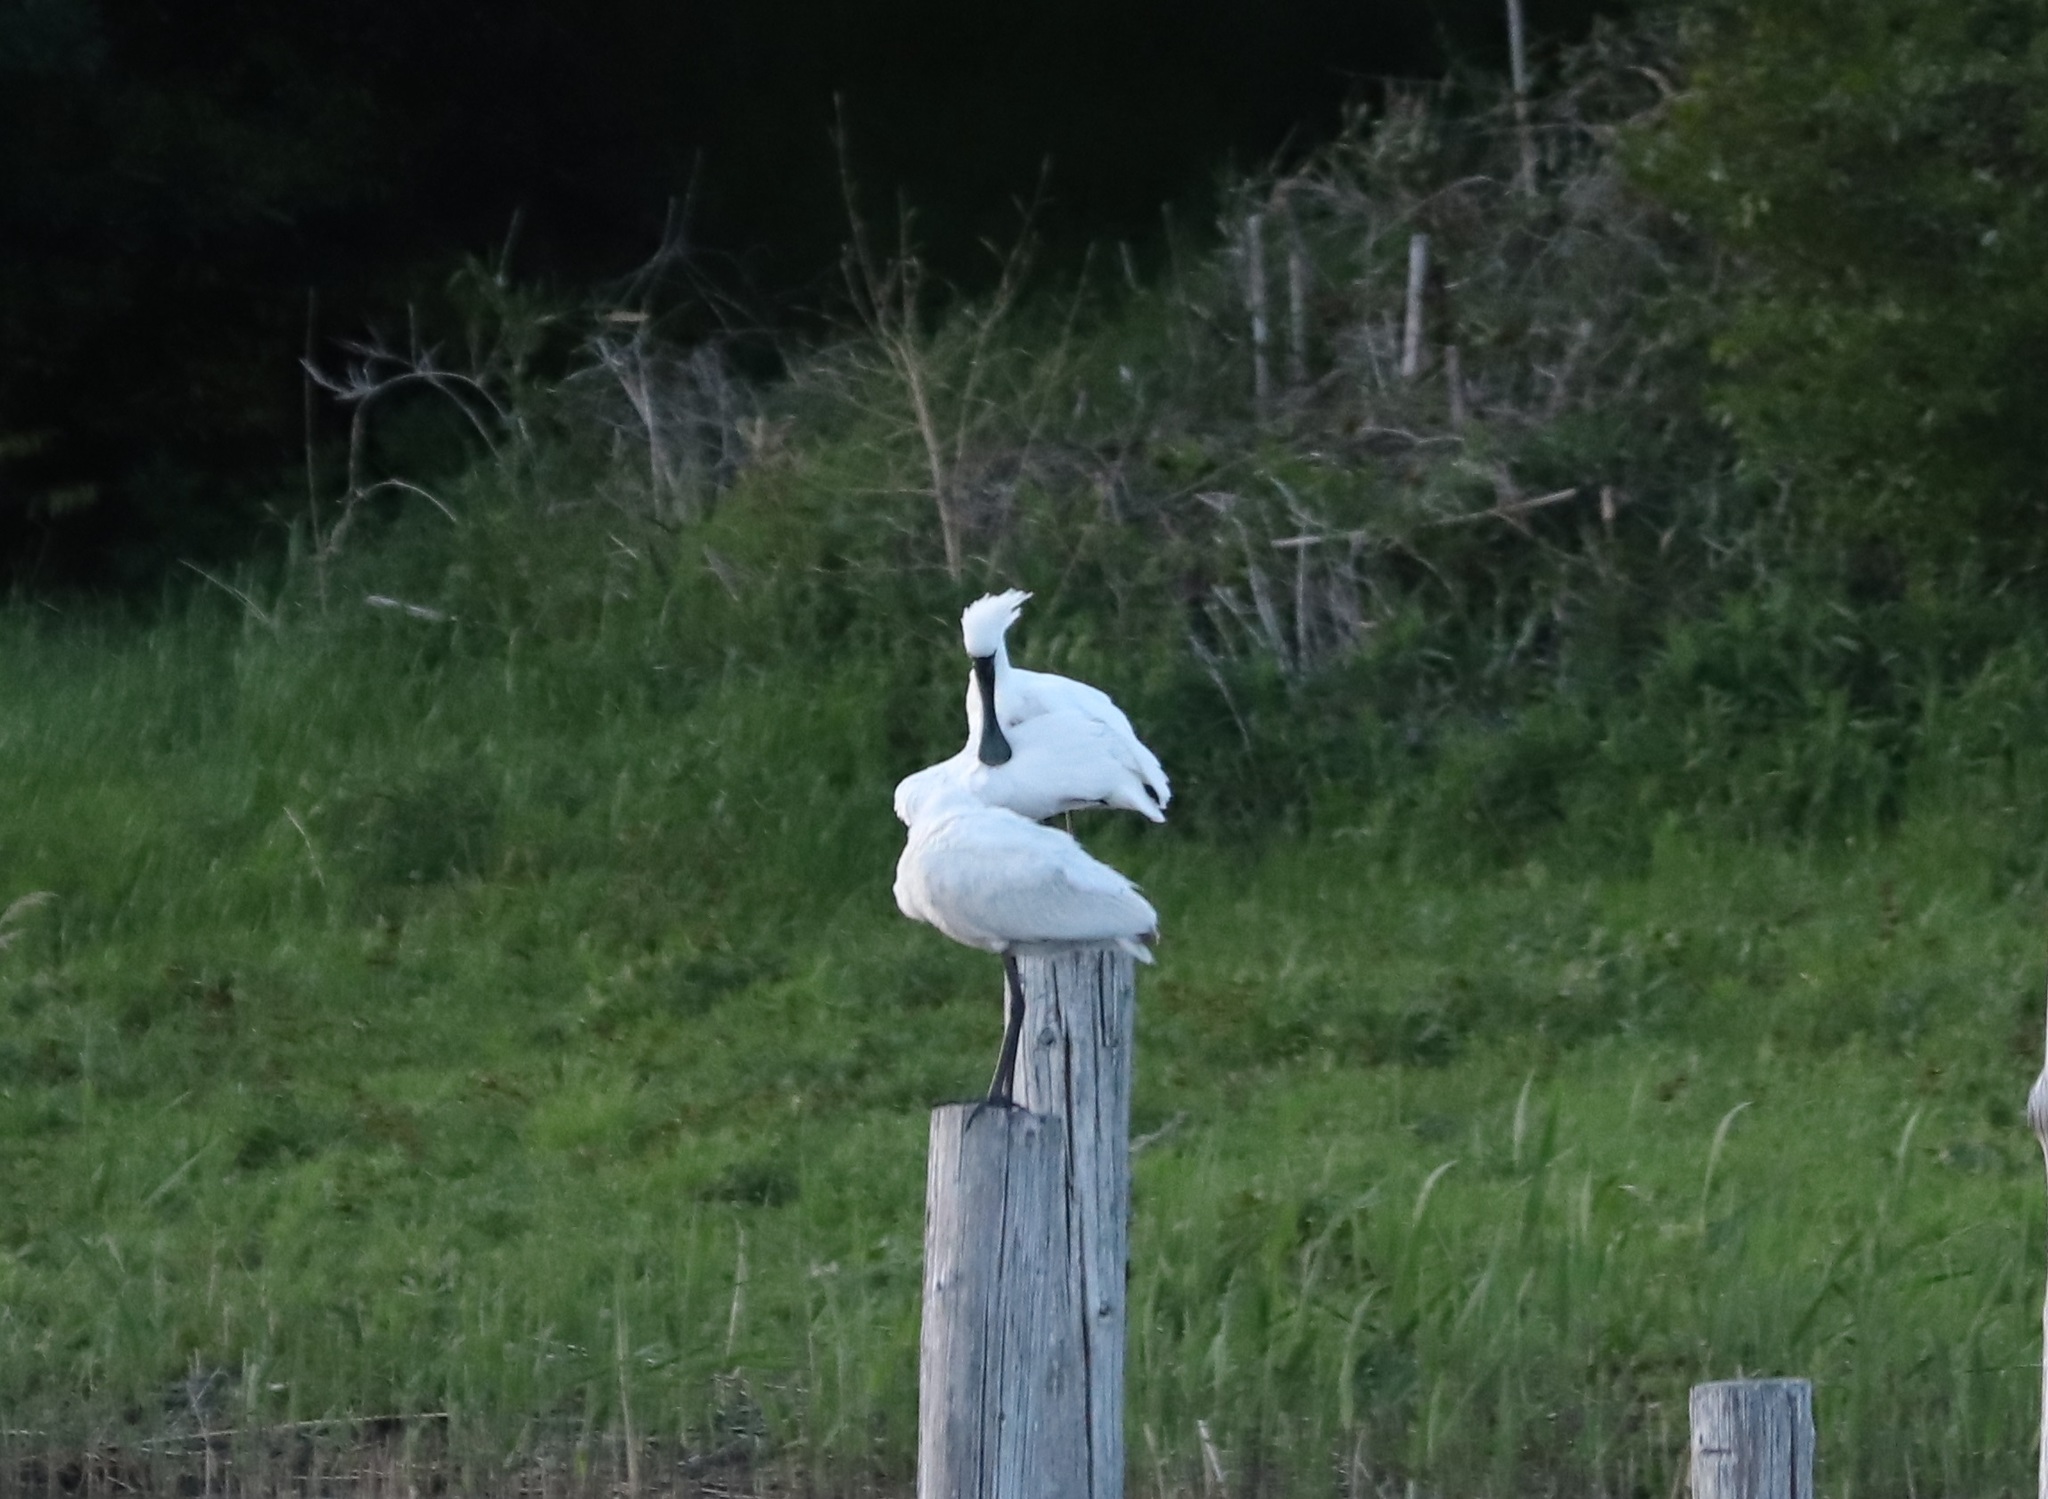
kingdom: Animalia
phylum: Chordata
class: Aves
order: Pelecaniformes
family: Threskiornithidae
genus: Platalea
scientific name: Platalea minor
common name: Black-faced spoonbill
